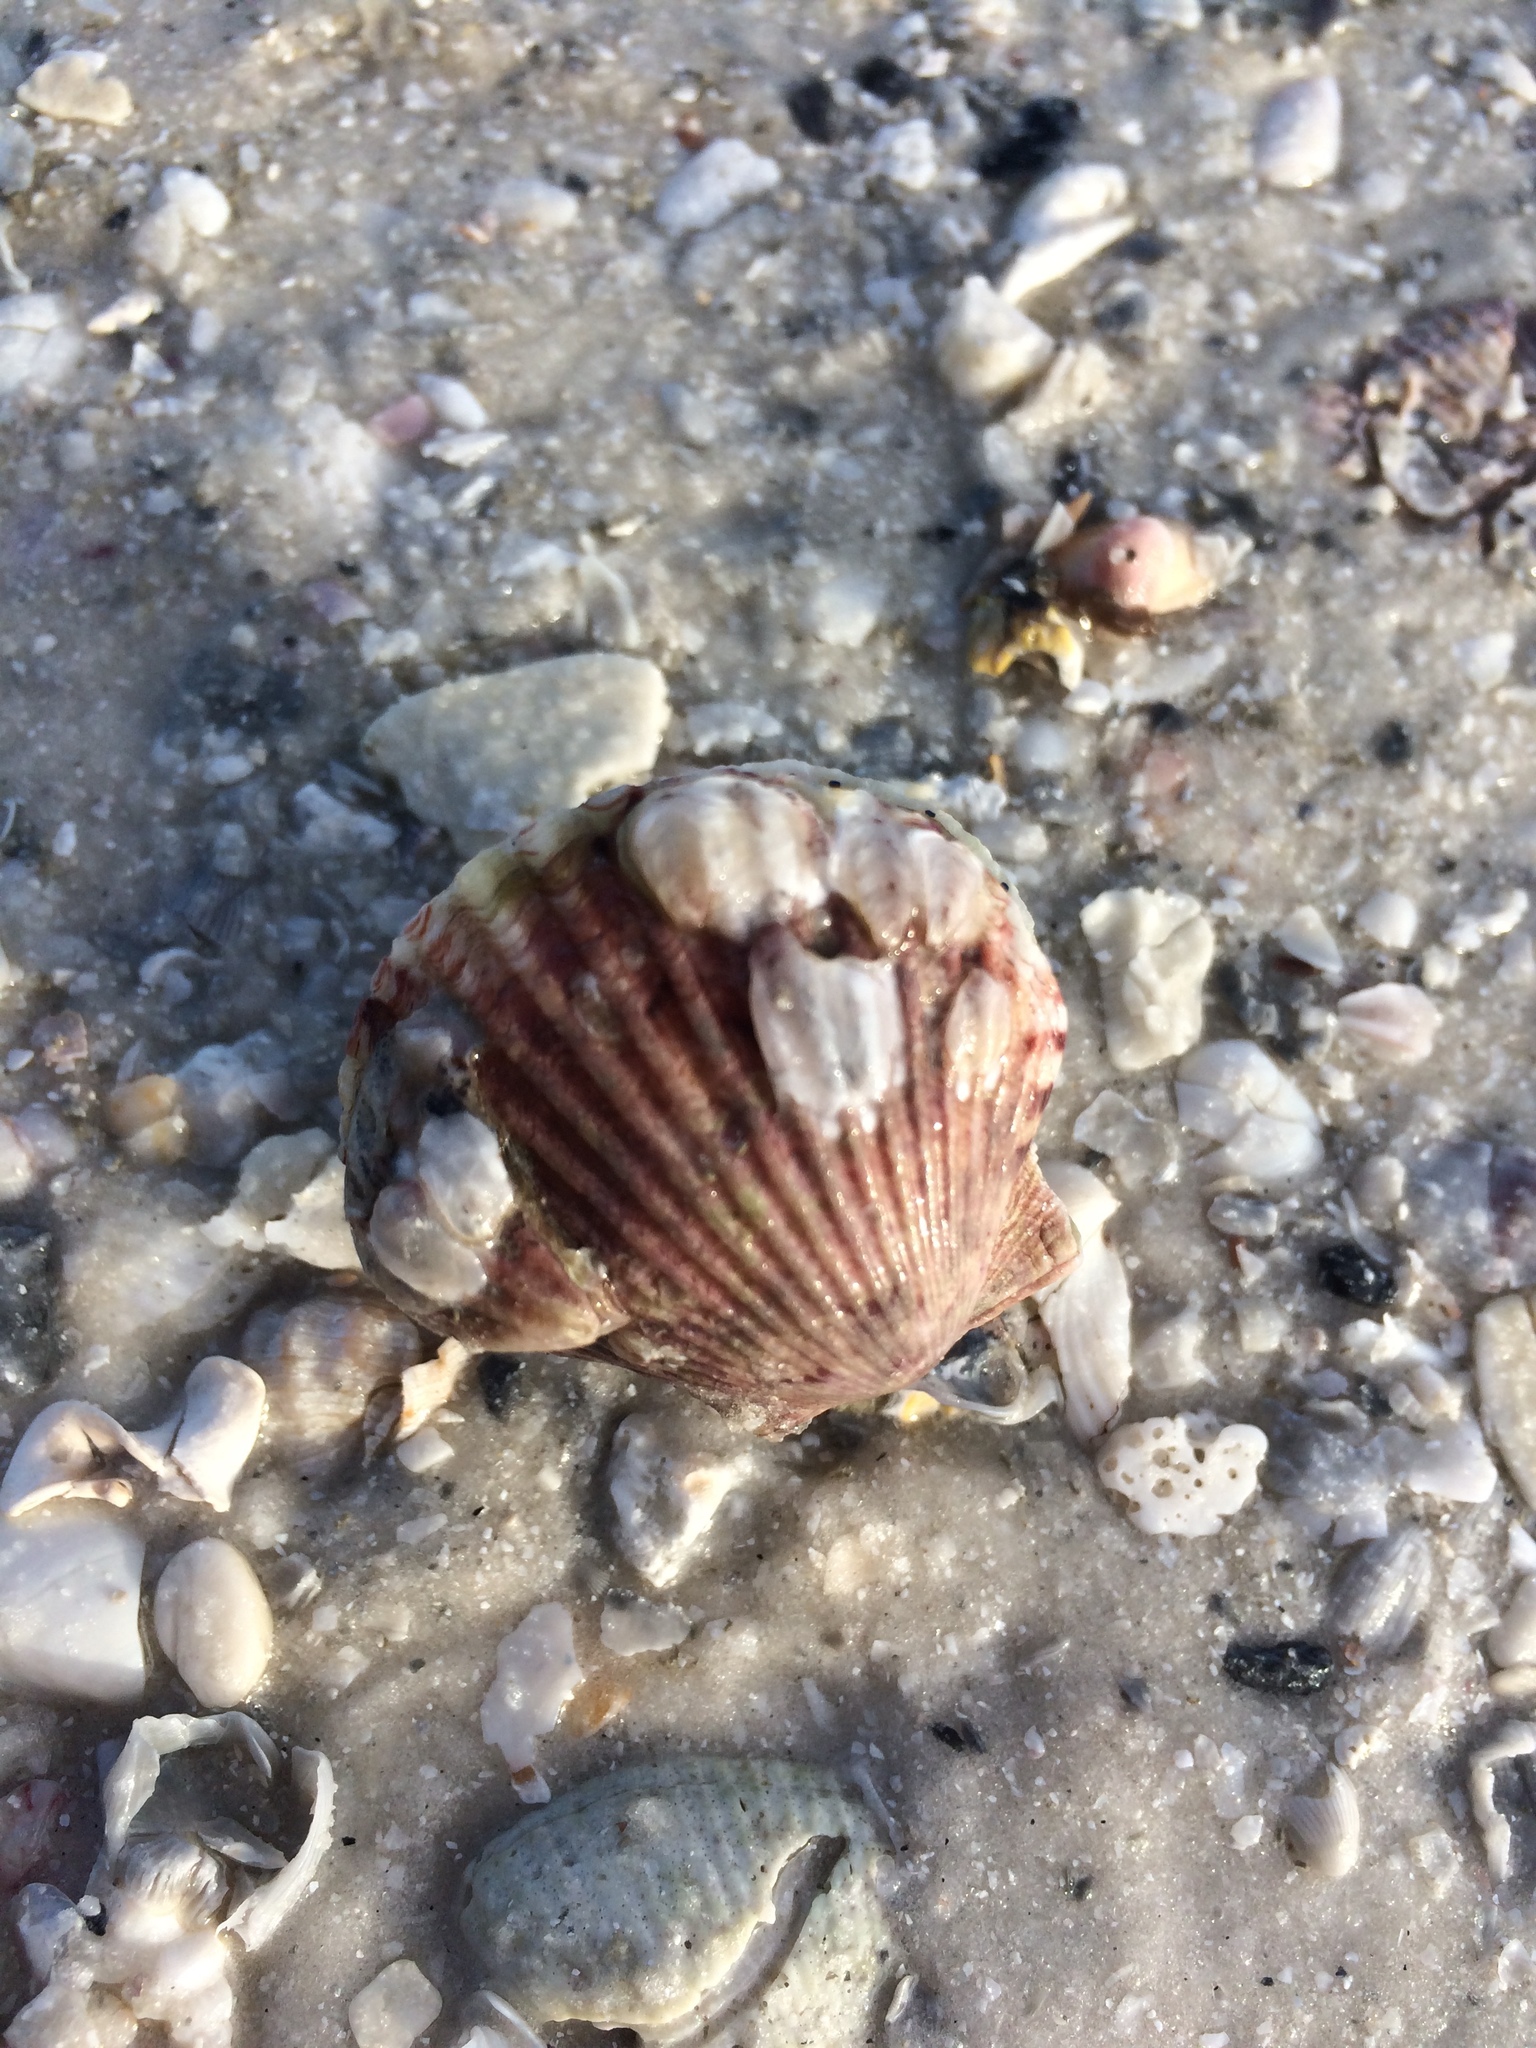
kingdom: Animalia
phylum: Mollusca
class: Bivalvia
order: Pectinida
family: Pectinidae
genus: Argopecten
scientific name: Argopecten gibbus
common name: Atlantic calico scallop
